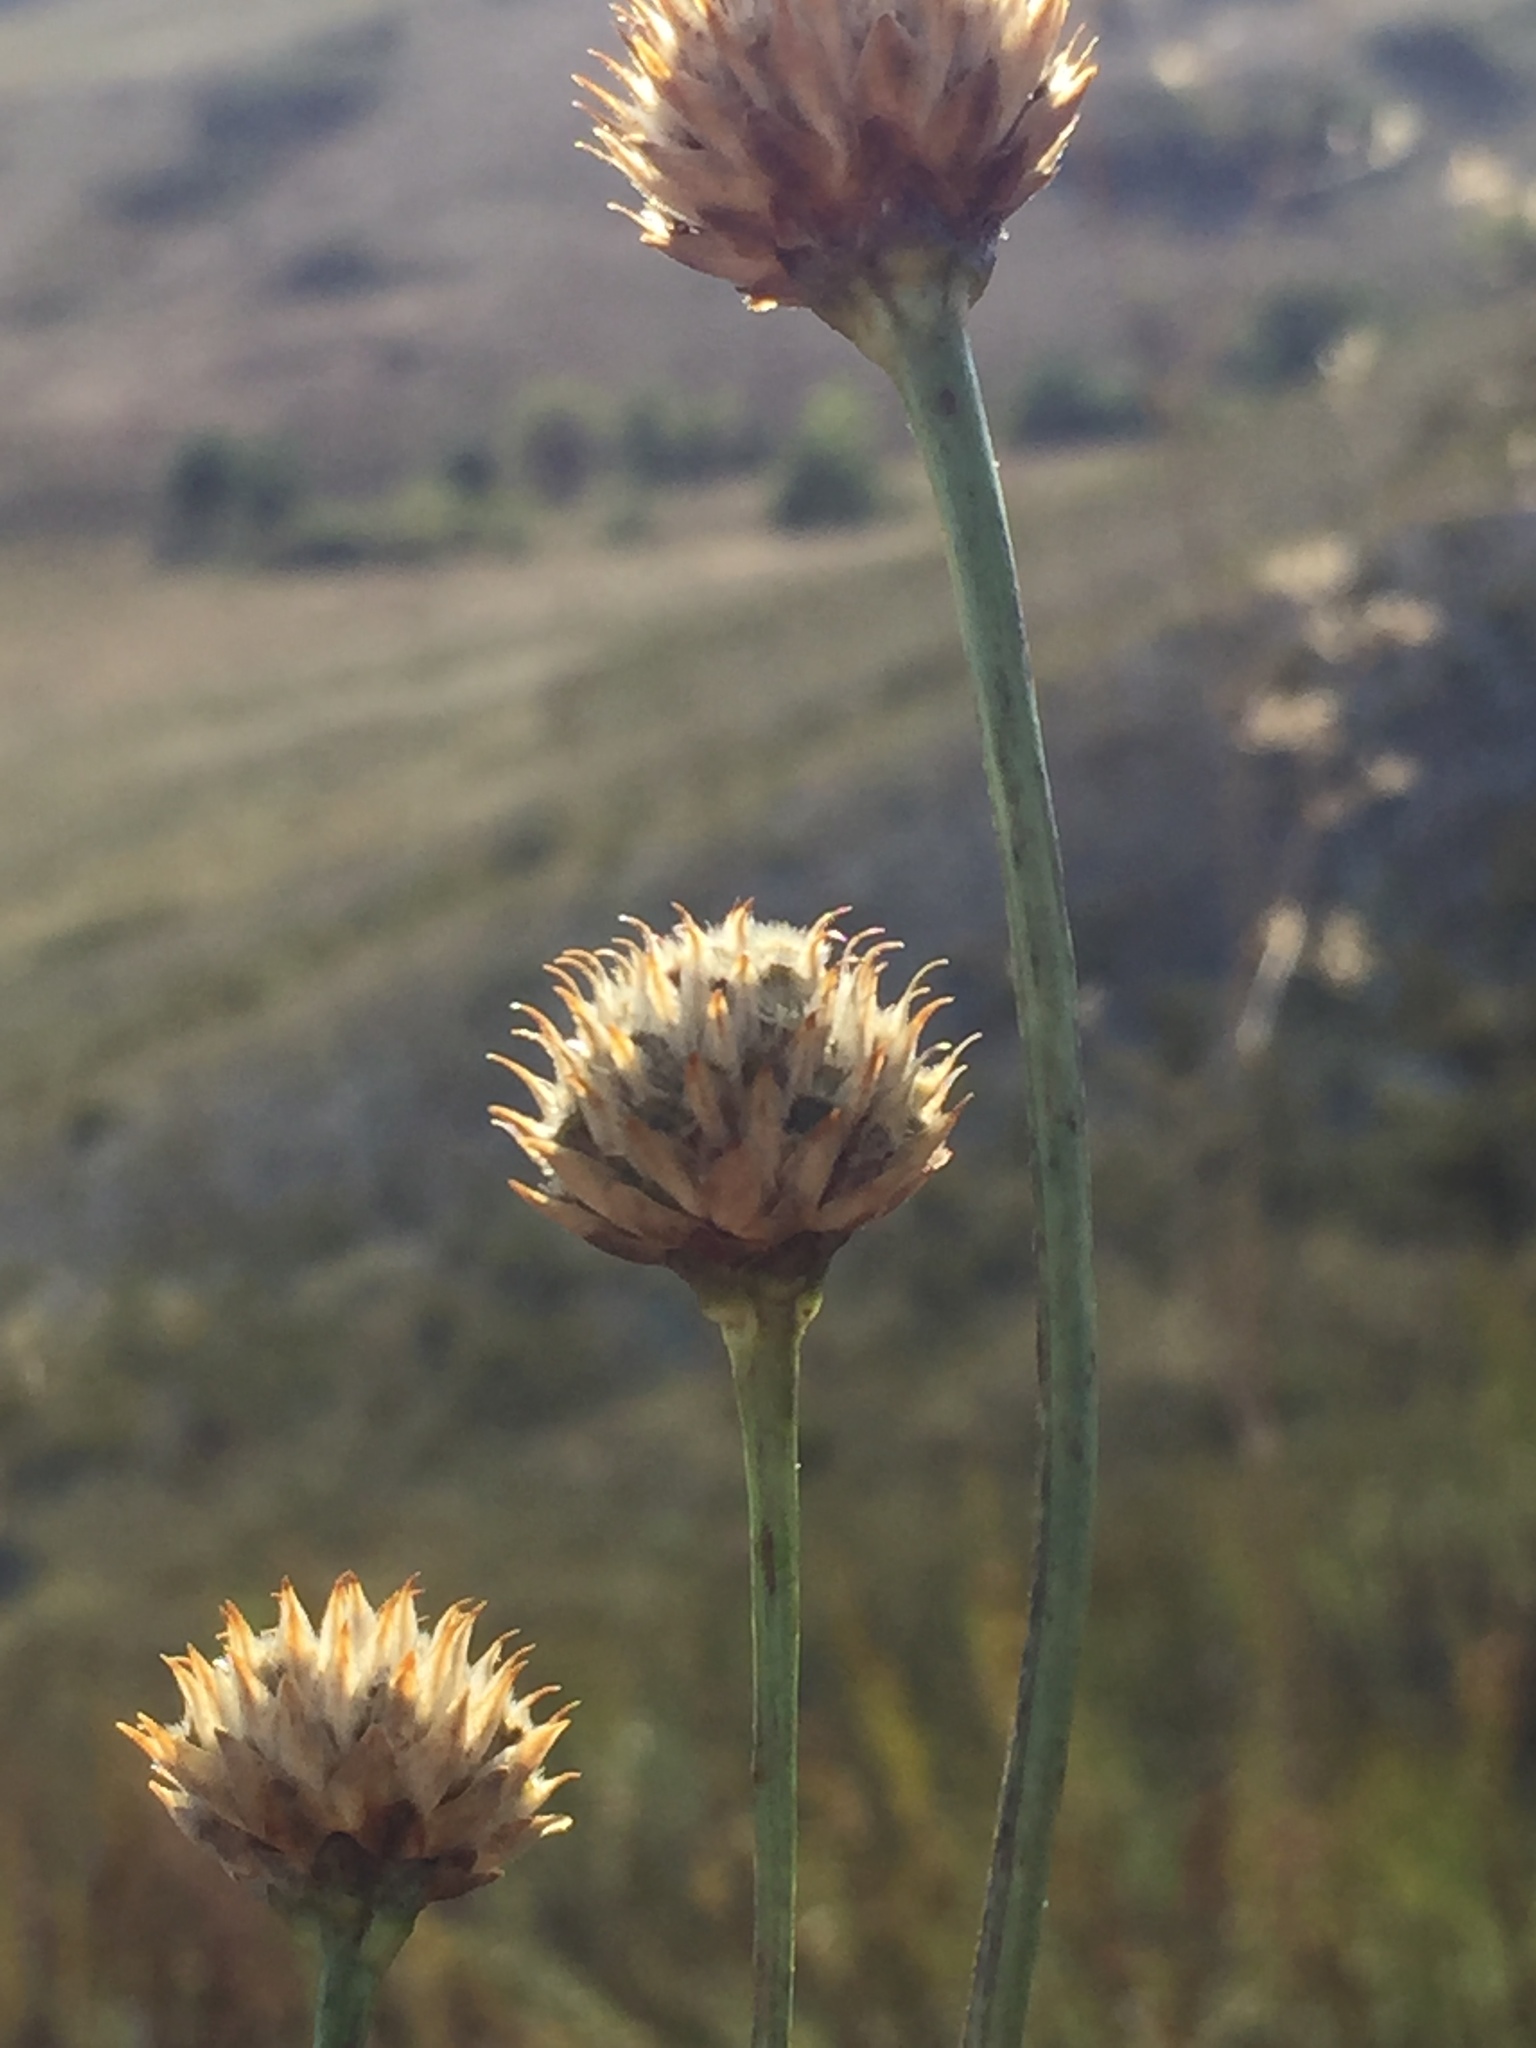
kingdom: Plantae
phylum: Tracheophyta
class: Magnoliopsida
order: Dipsacales
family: Caprifoliaceae
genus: Cephalaria
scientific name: Cephalaria uralensis
